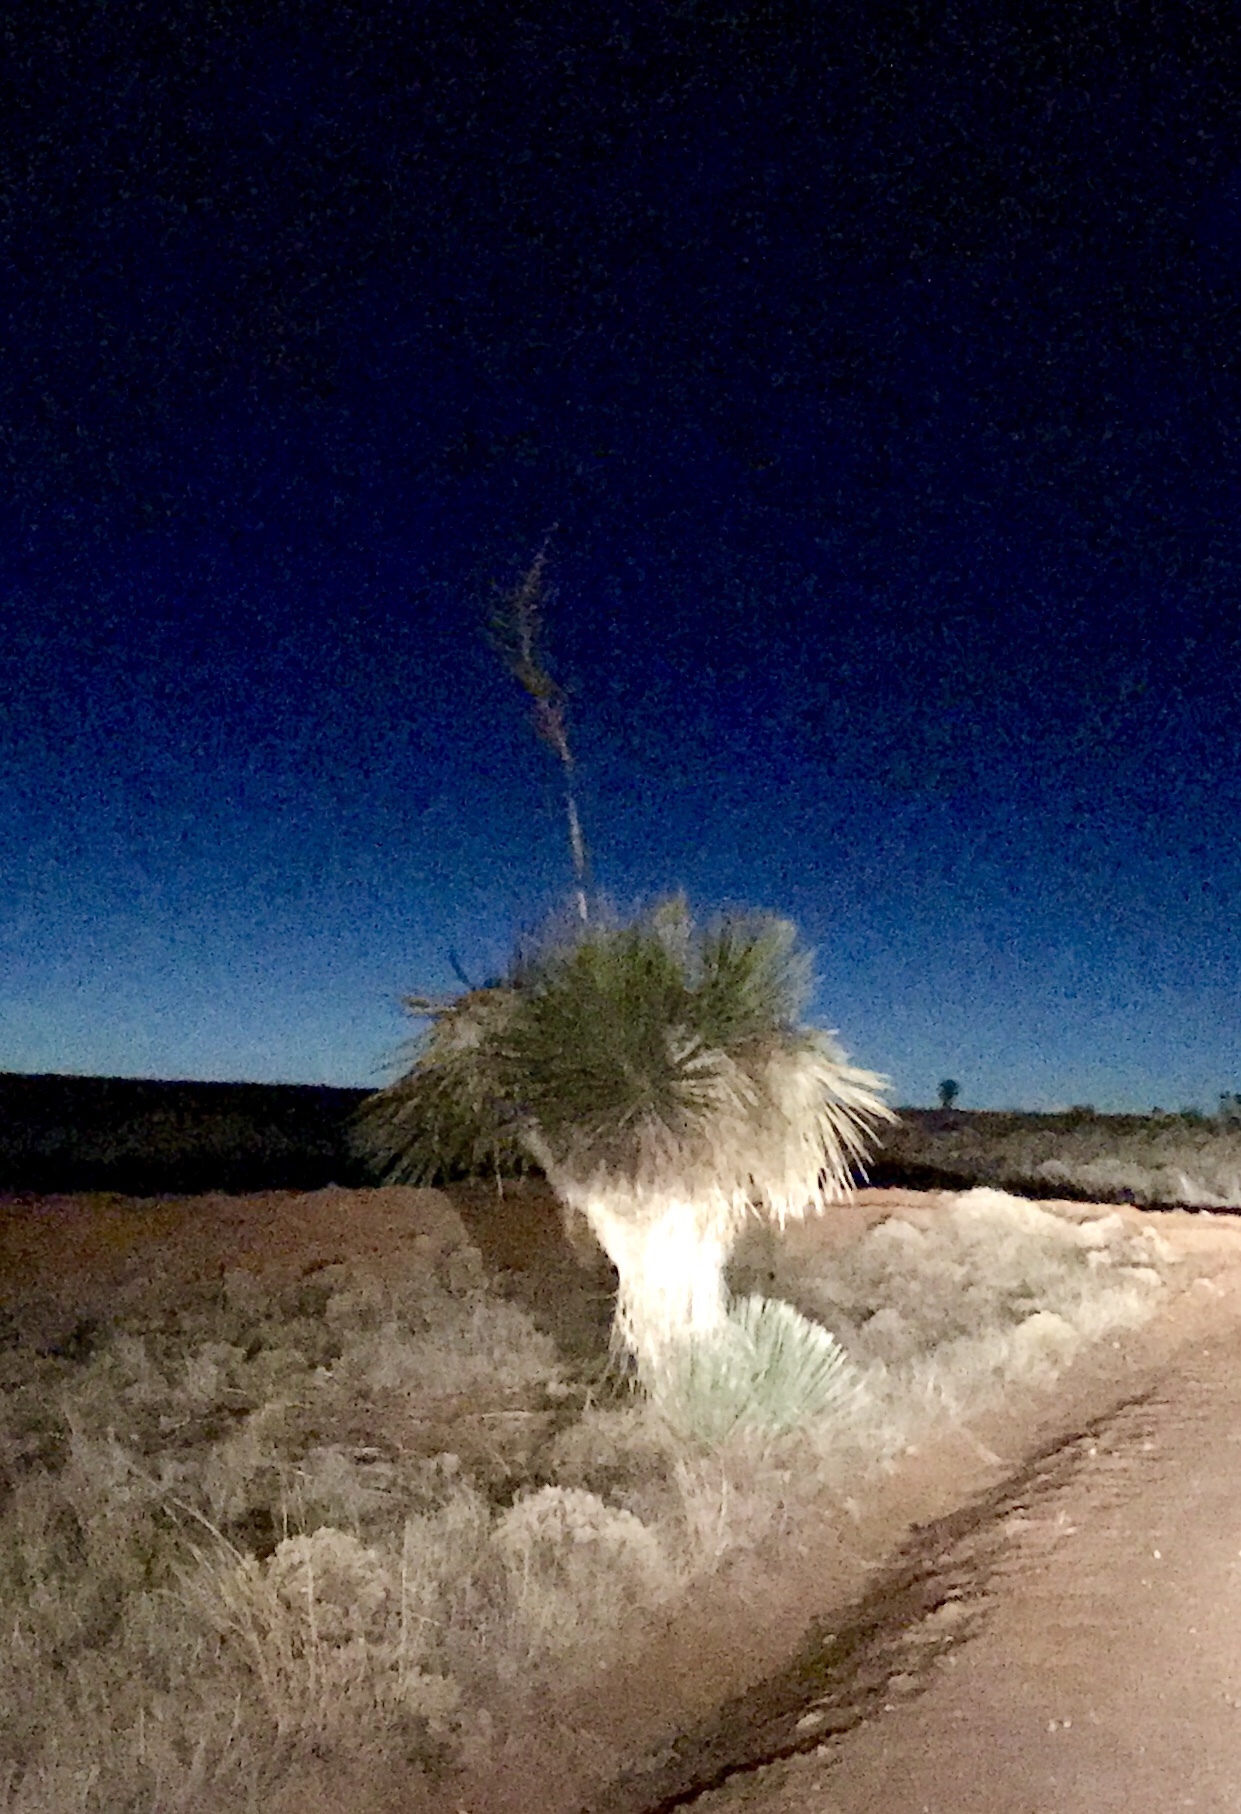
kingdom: Plantae
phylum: Tracheophyta
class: Liliopsida
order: Asparagales
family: Asparagaceae
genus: Yucca
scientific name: Yucca elata
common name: Palmella
